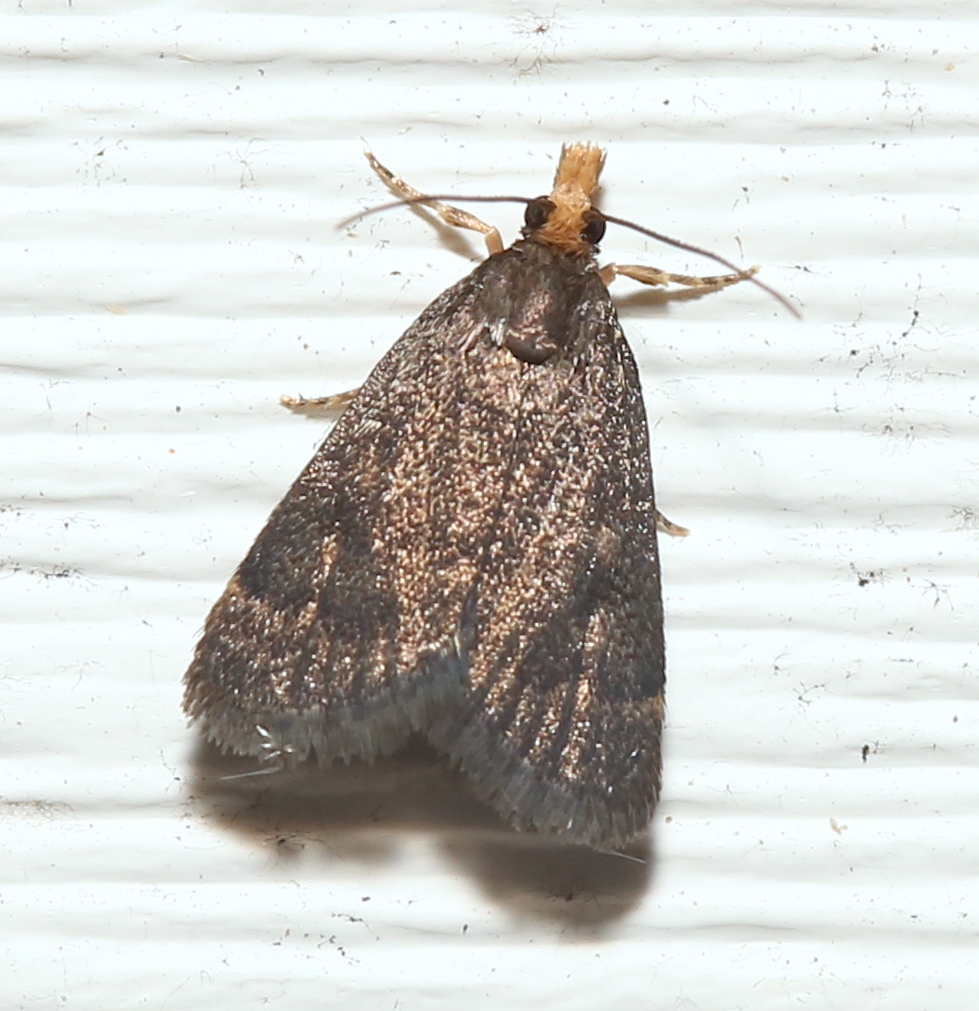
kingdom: Animalia
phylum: Arthropoda
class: Insecta
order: Lepidoptera
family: Crambidae
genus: Pyrausta
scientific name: Pyrausta merrickalis
